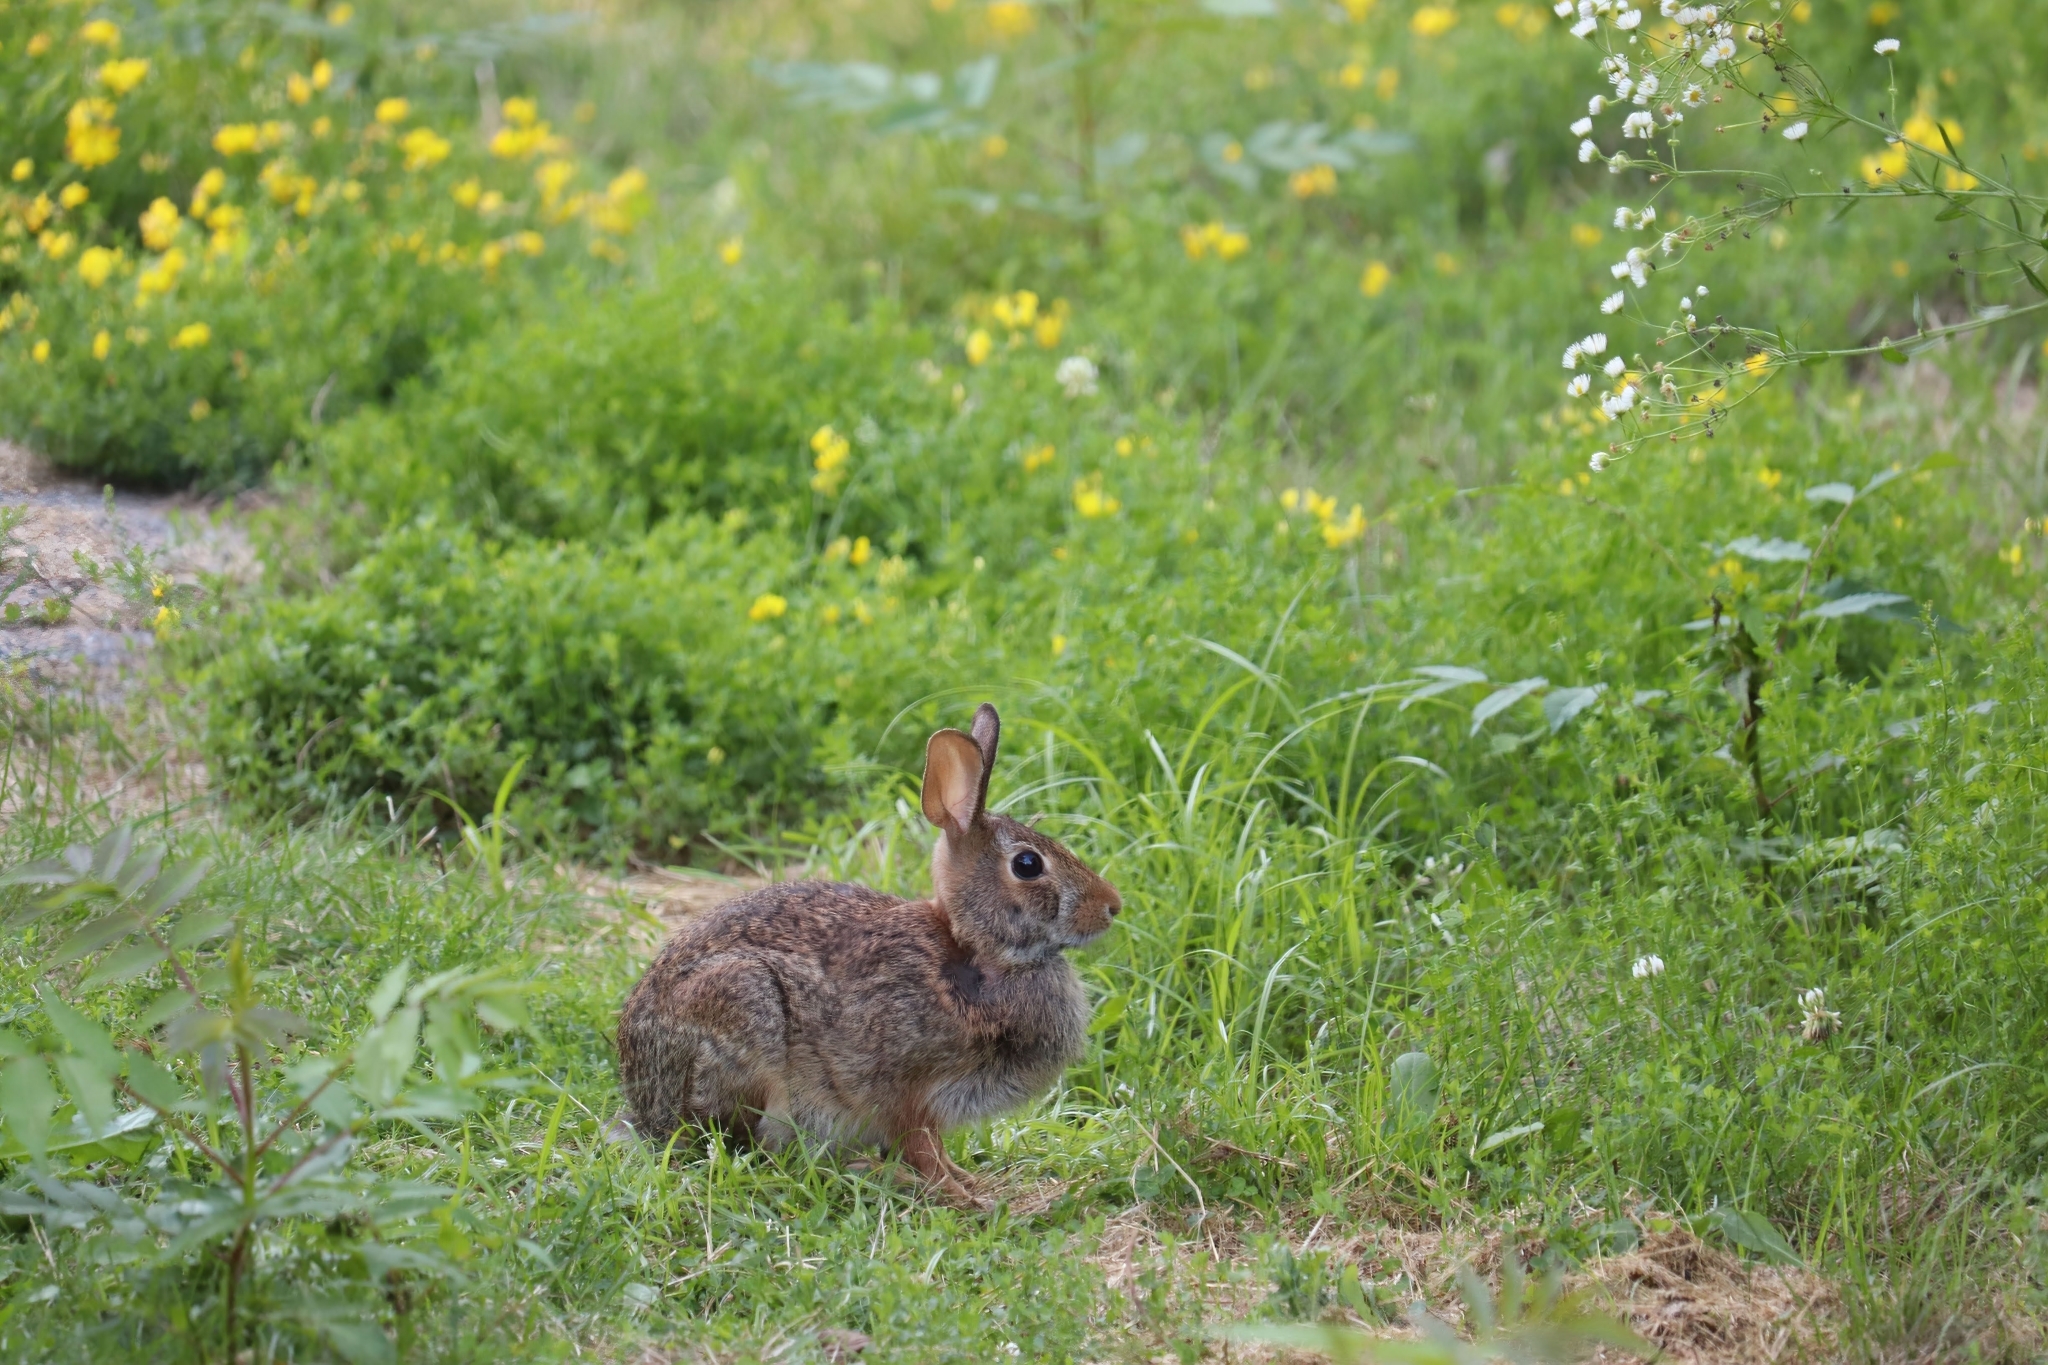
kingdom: Animalia
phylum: Chordata
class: Mammalia
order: Lagomorpha
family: Leporidae
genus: Sylvilagus
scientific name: Sylvilagus floridanus
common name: Eastern cottontail
